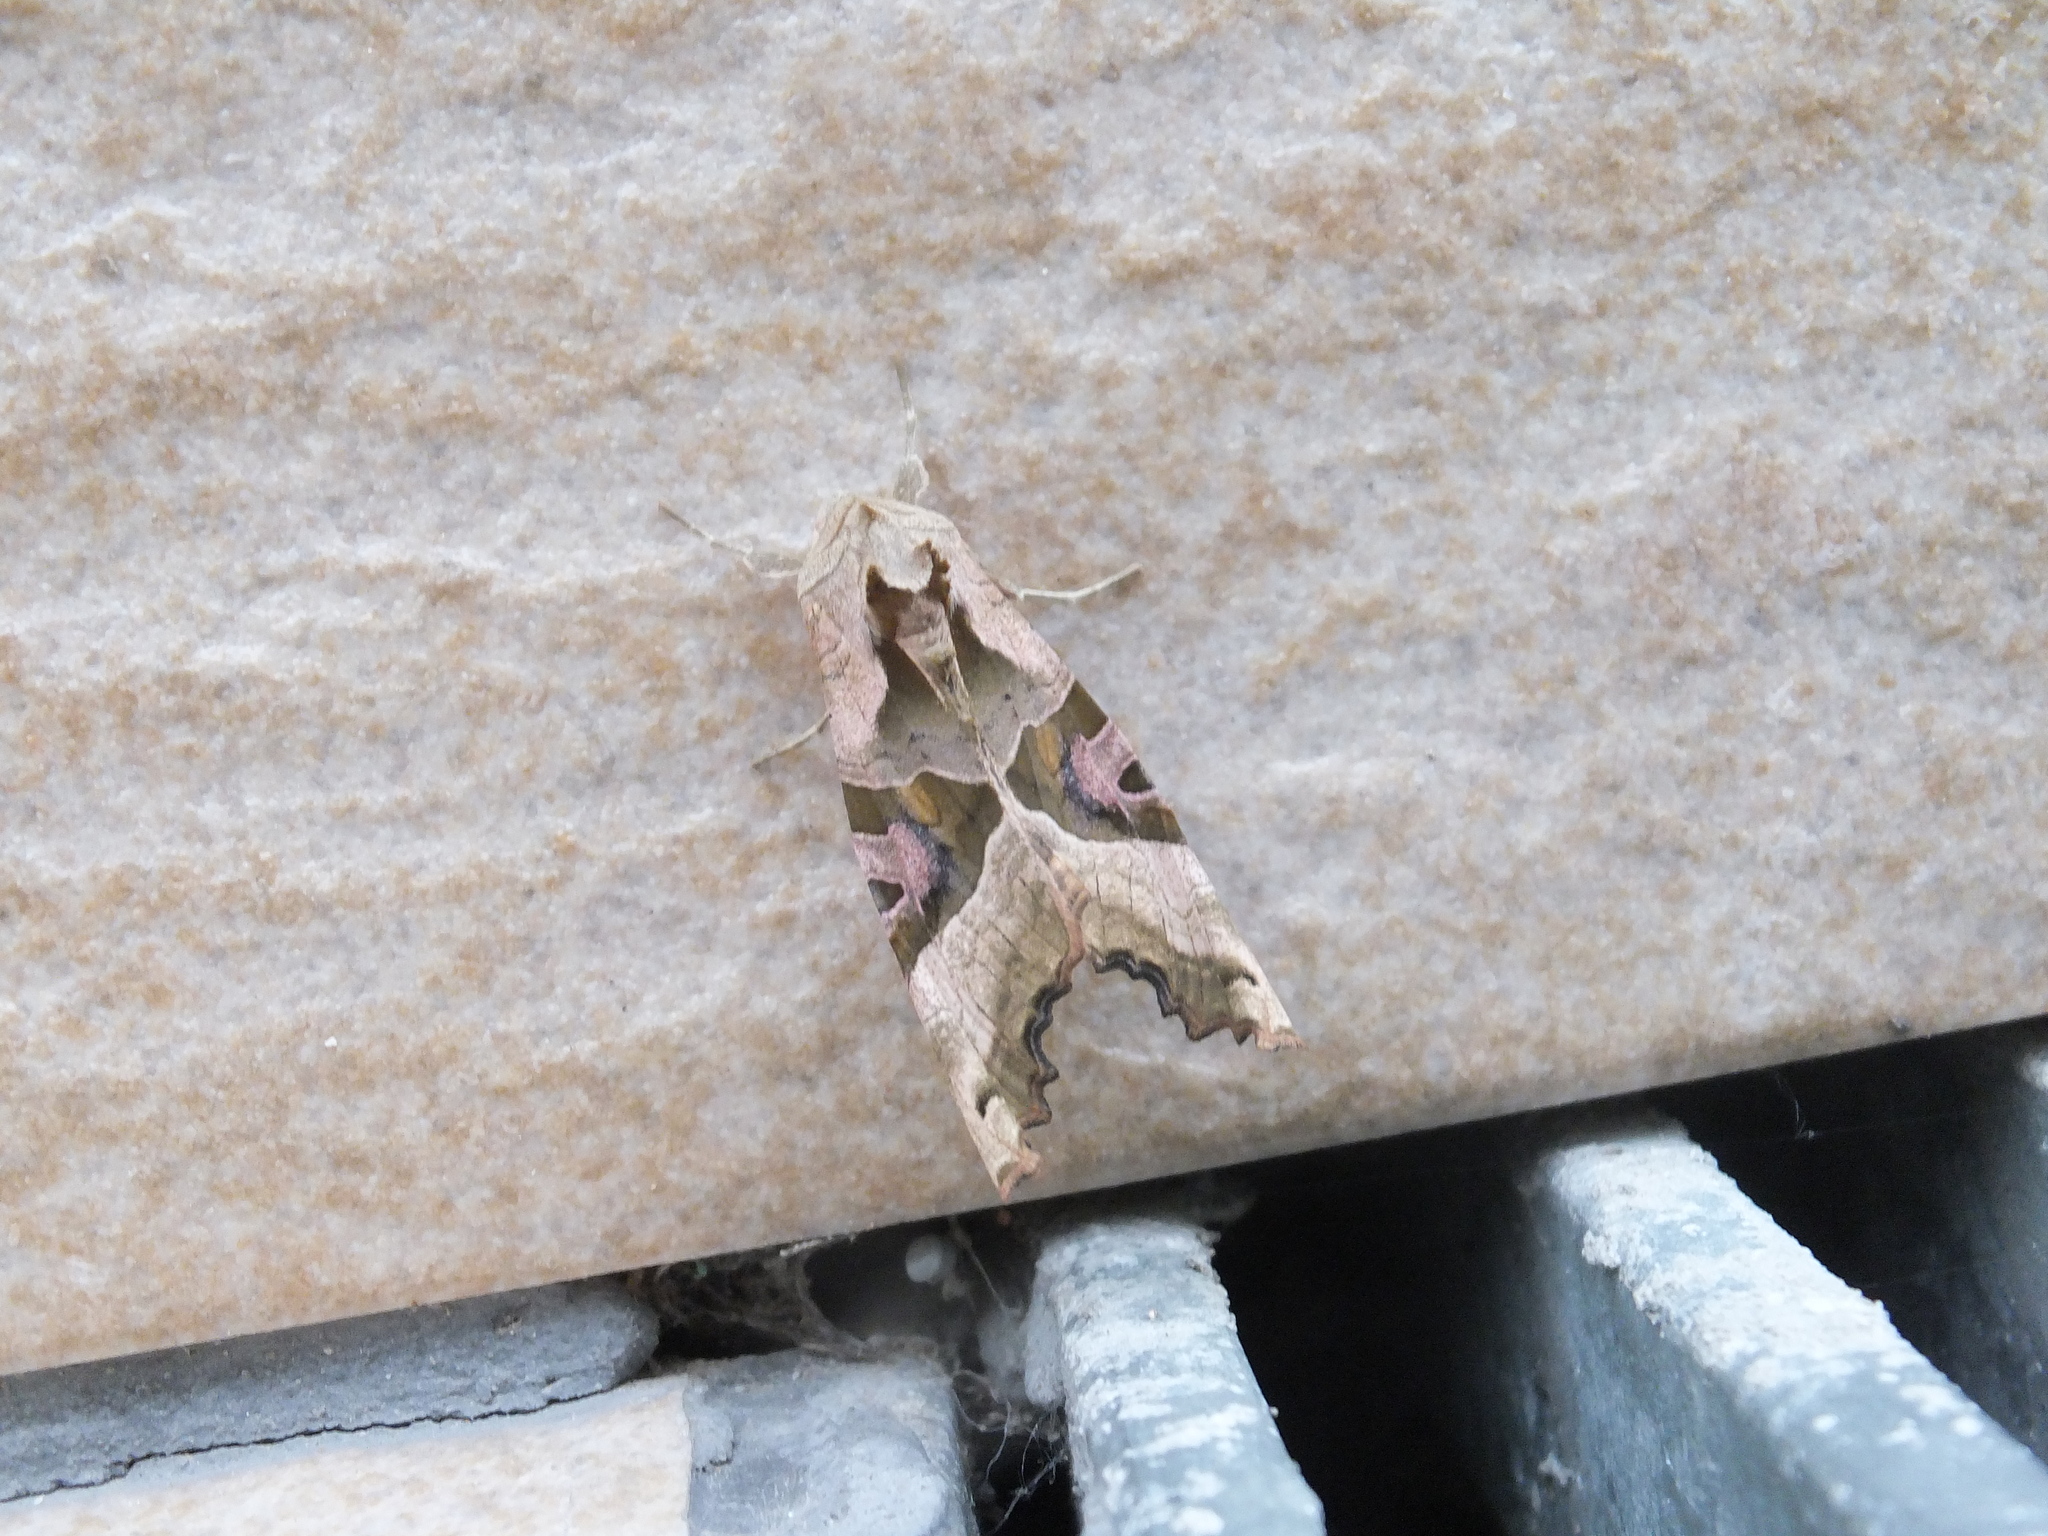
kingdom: Animalia
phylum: Arthropoda
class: Insecta
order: Lepidoptera
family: Noctuidae
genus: Phlogophora
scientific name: Phlogophora meticulosa
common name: Angle shades
